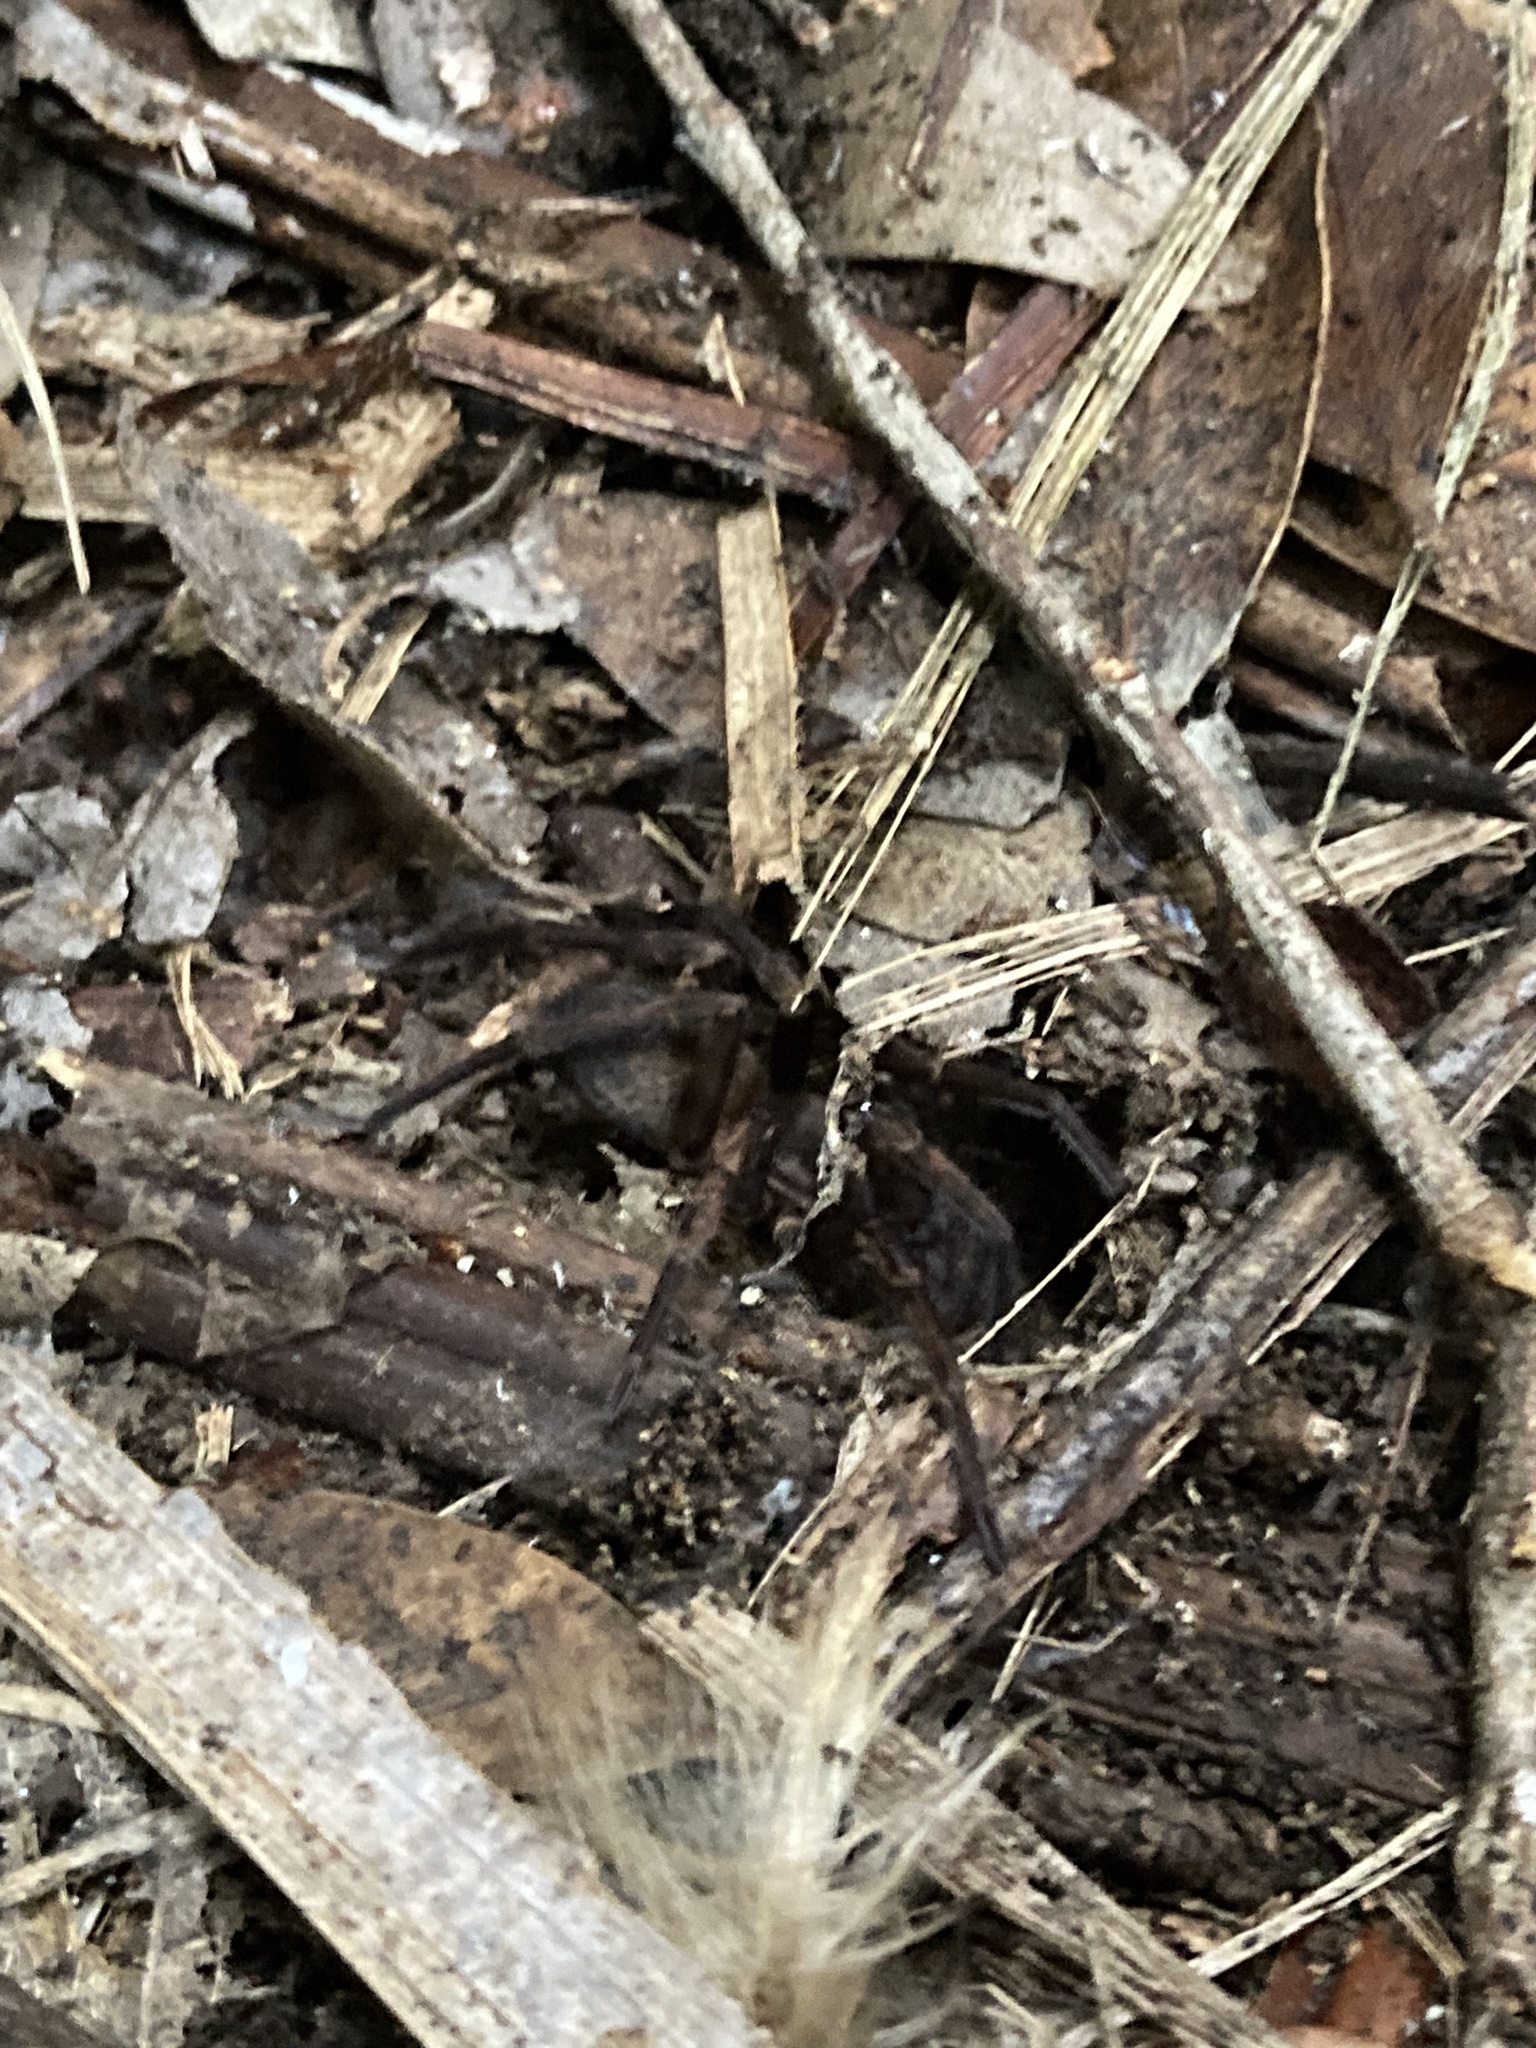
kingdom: Animalia
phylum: Arthropoda
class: Arachnida
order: Araneae
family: Zoropsidae
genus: Uliodon
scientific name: Uliodon
